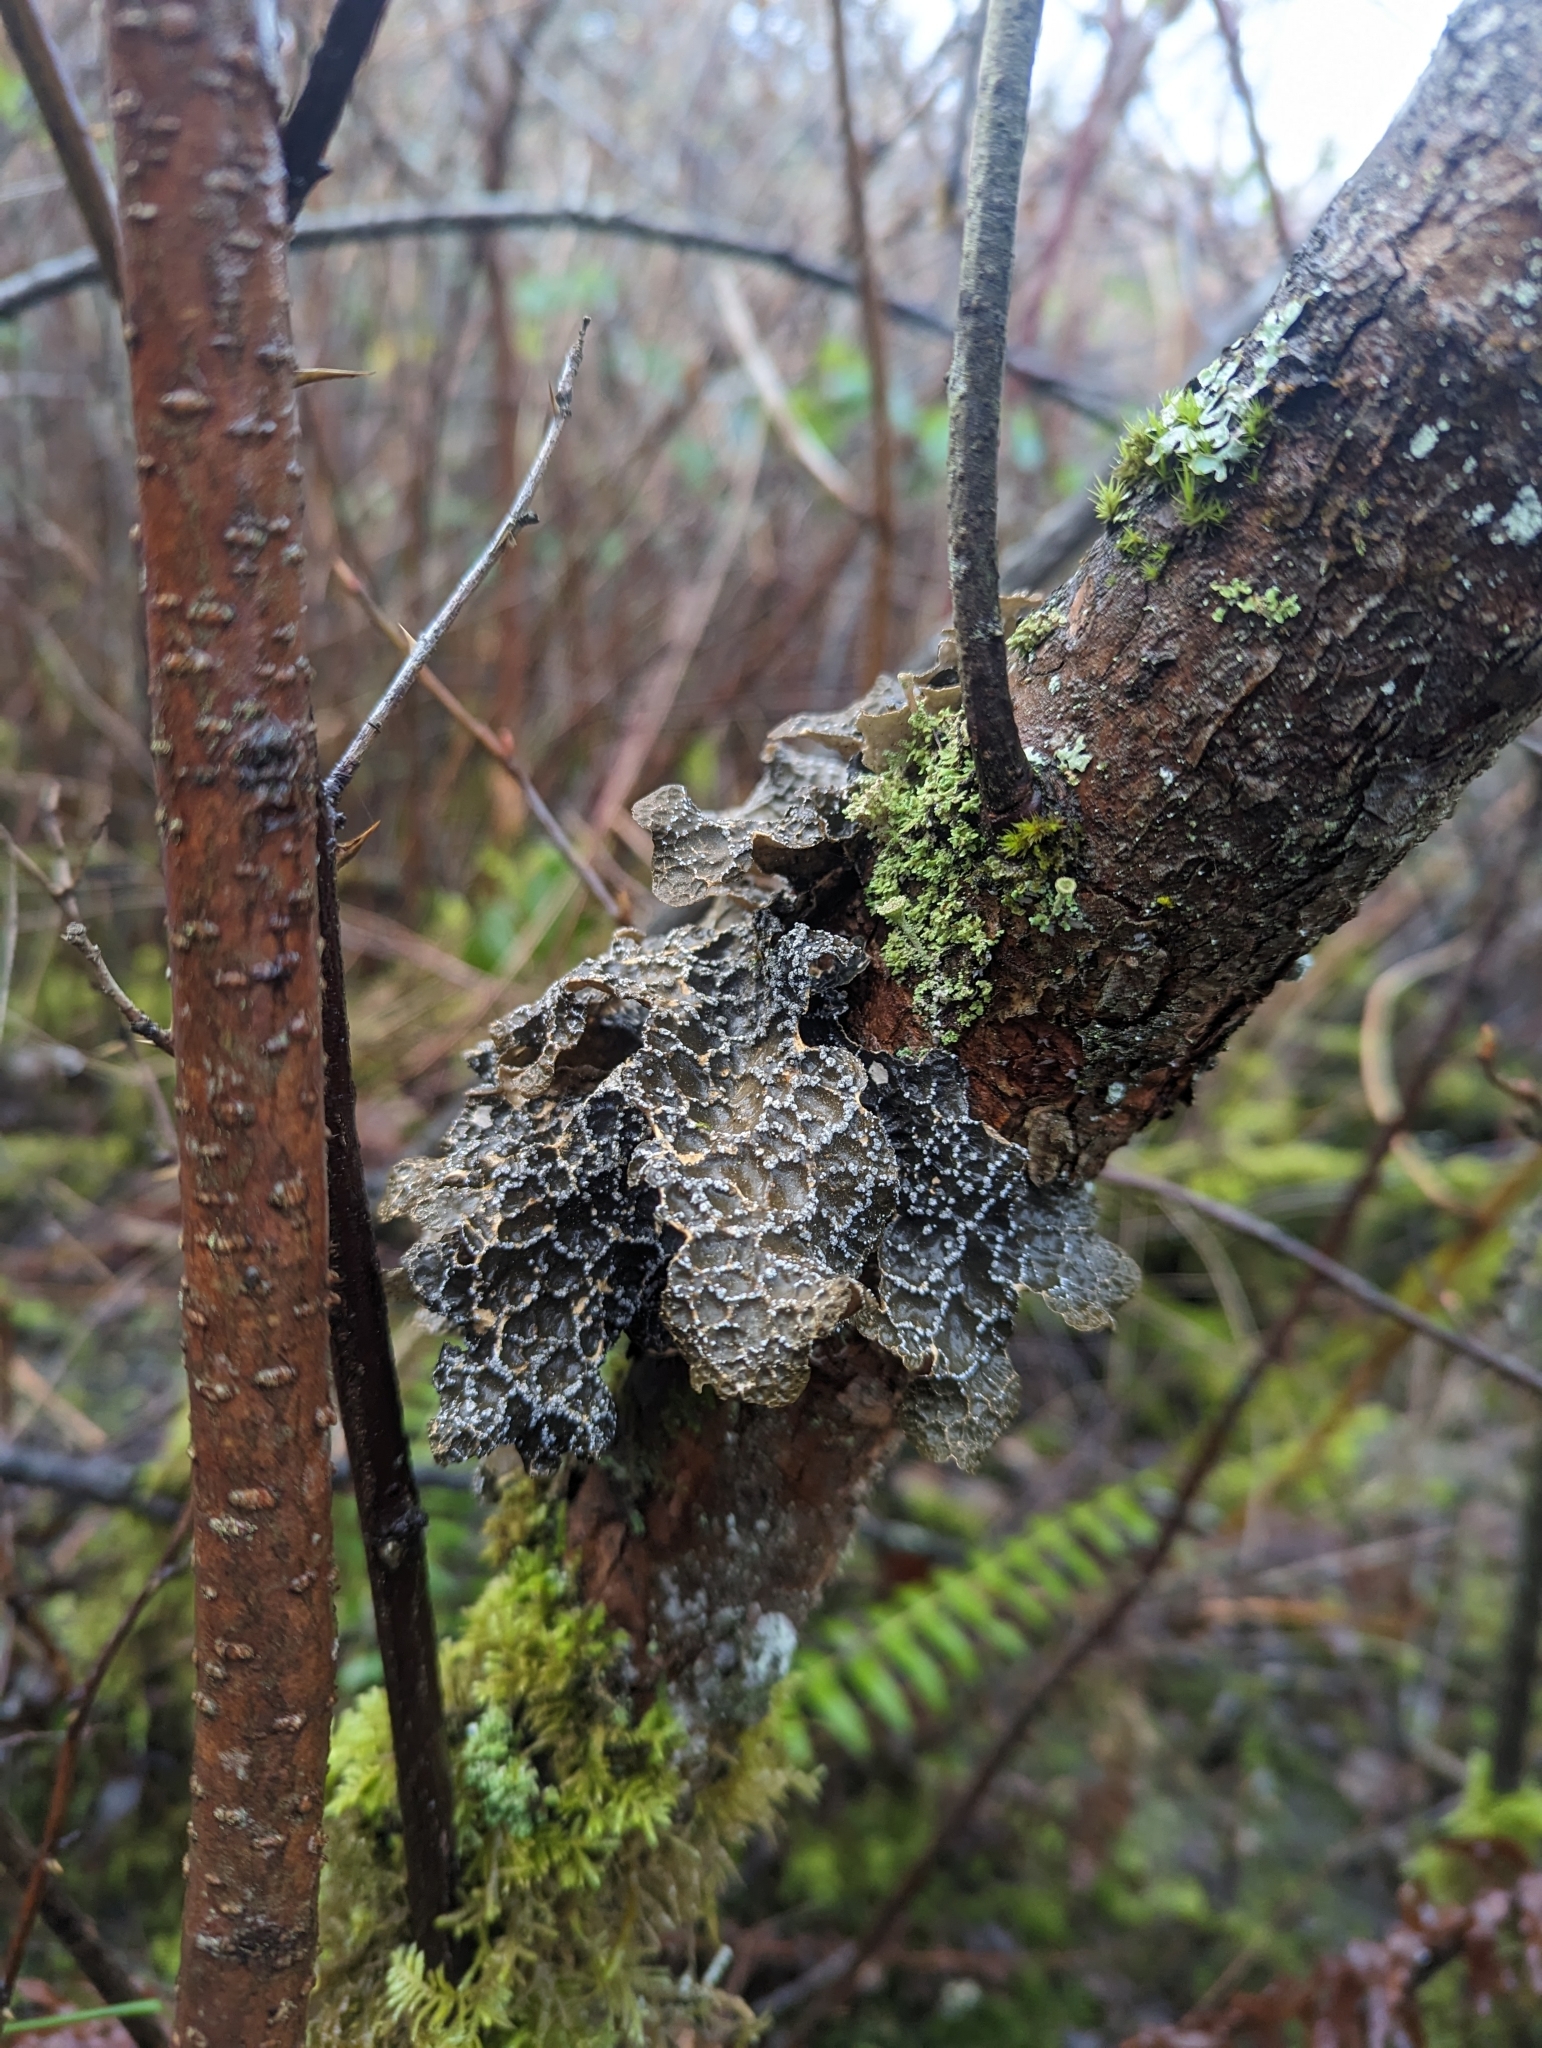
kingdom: Fungi
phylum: Ascomycota
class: Lecanoromycetes
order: Peltigerales
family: Lobariaceae
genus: Lobaria
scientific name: Lobaria anomala
